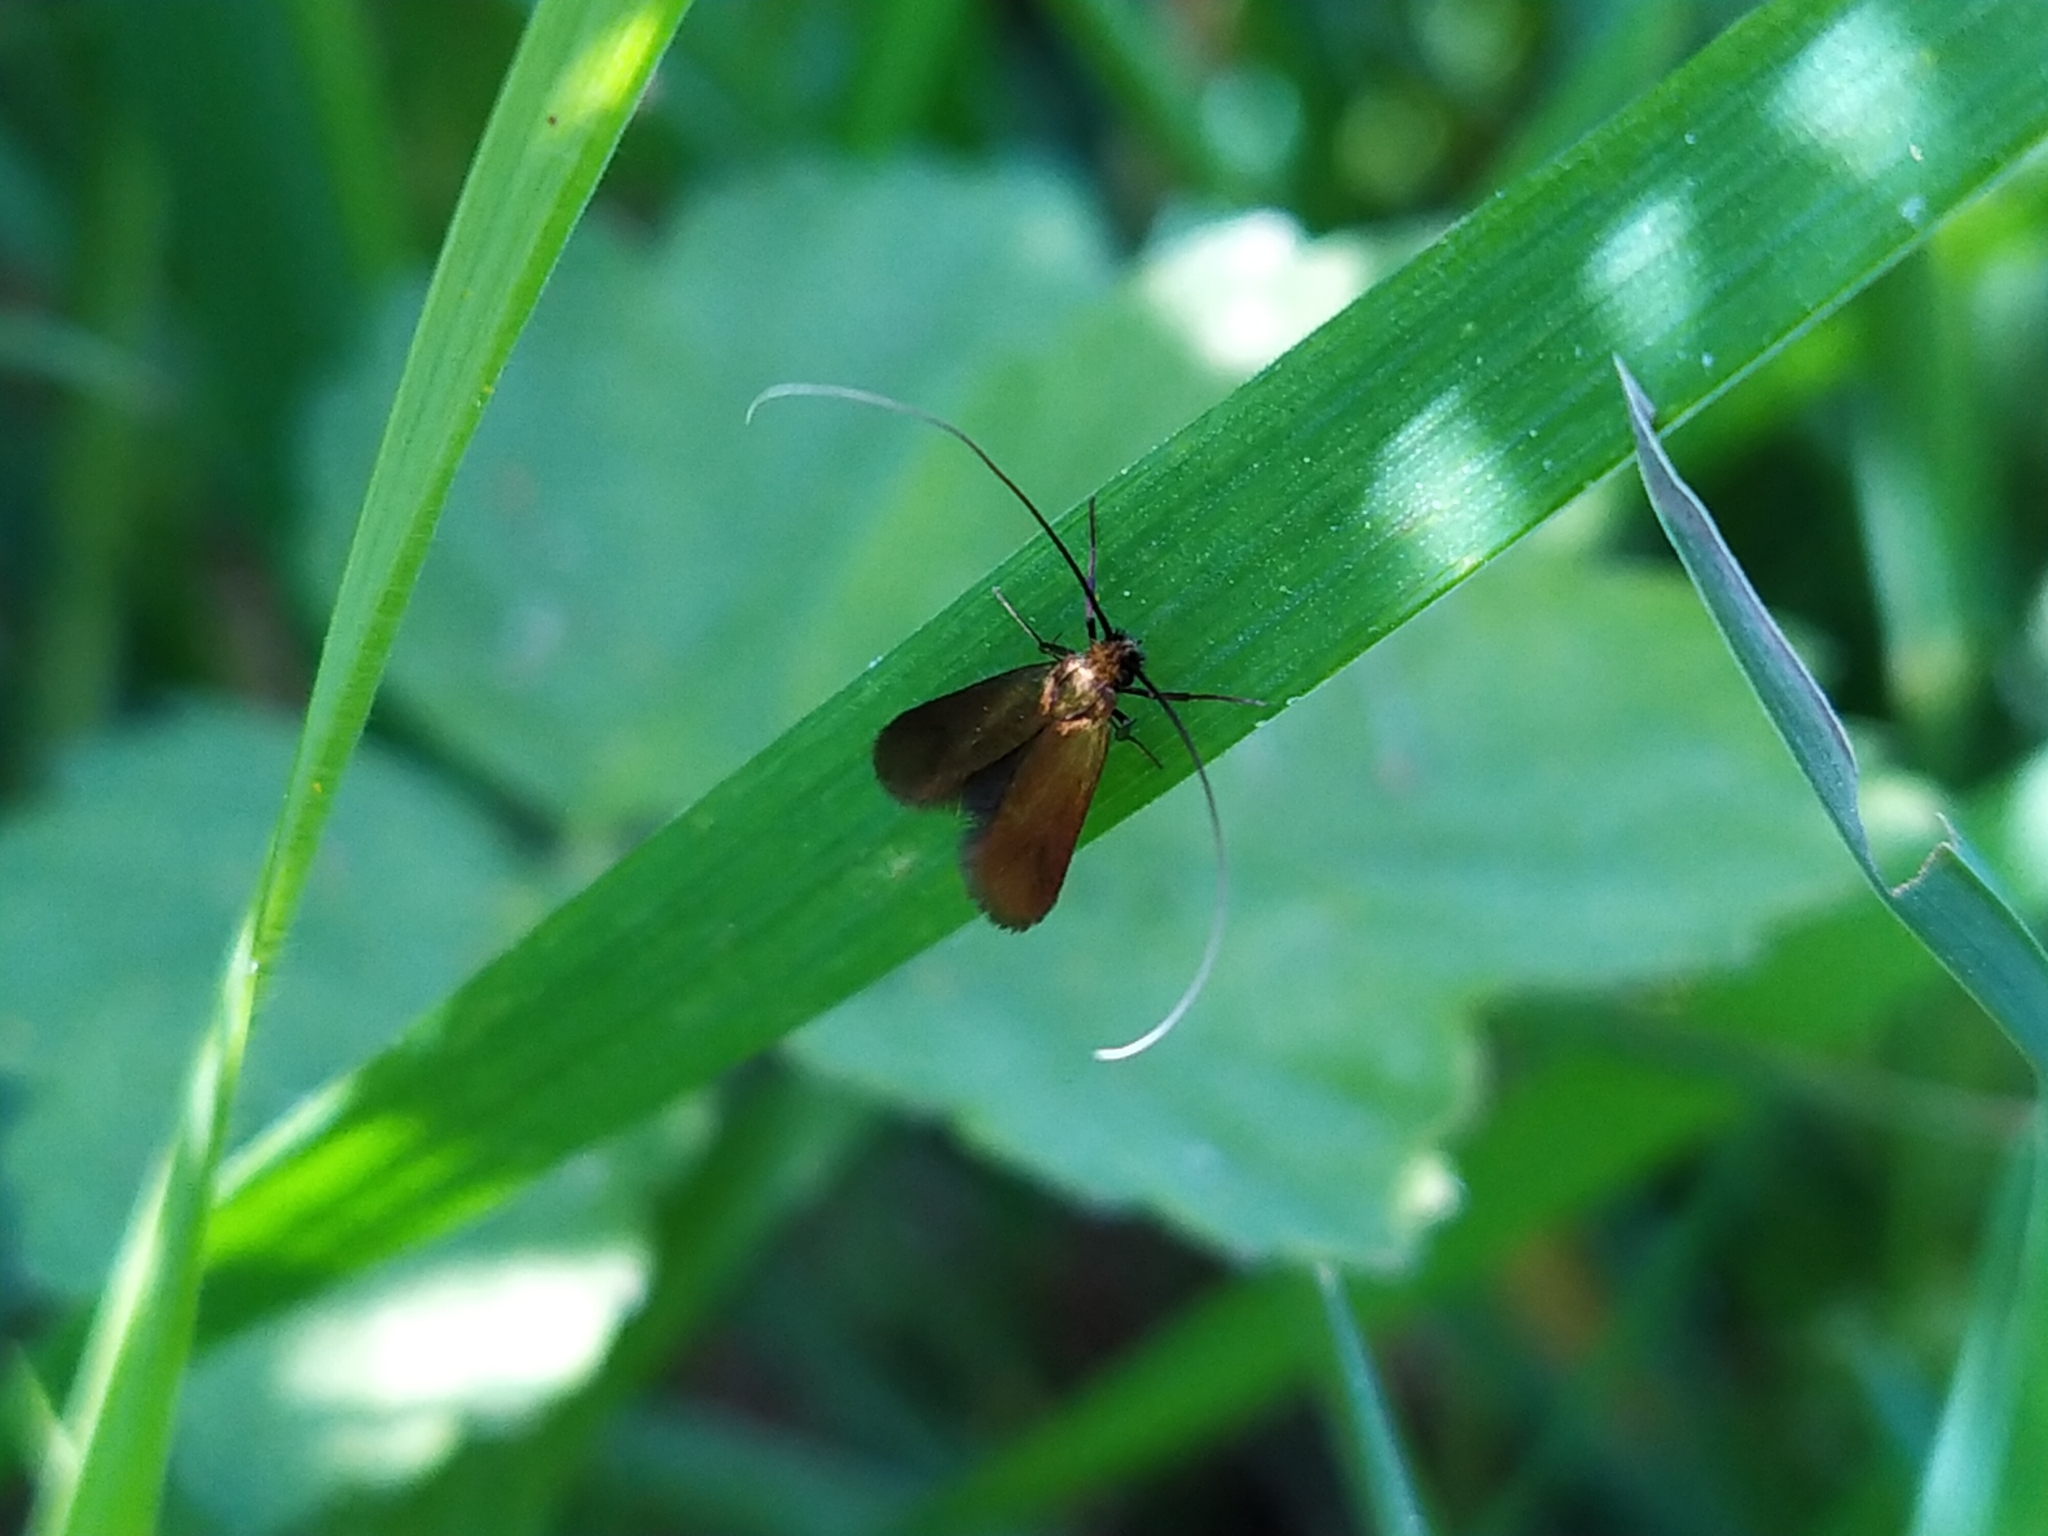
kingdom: Animalia
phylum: Arthropoda
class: Insecta
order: Lepidoptera
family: Adelidae
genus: Cauchas
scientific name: Cauchas rufimitrella
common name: Meadow long-horn
